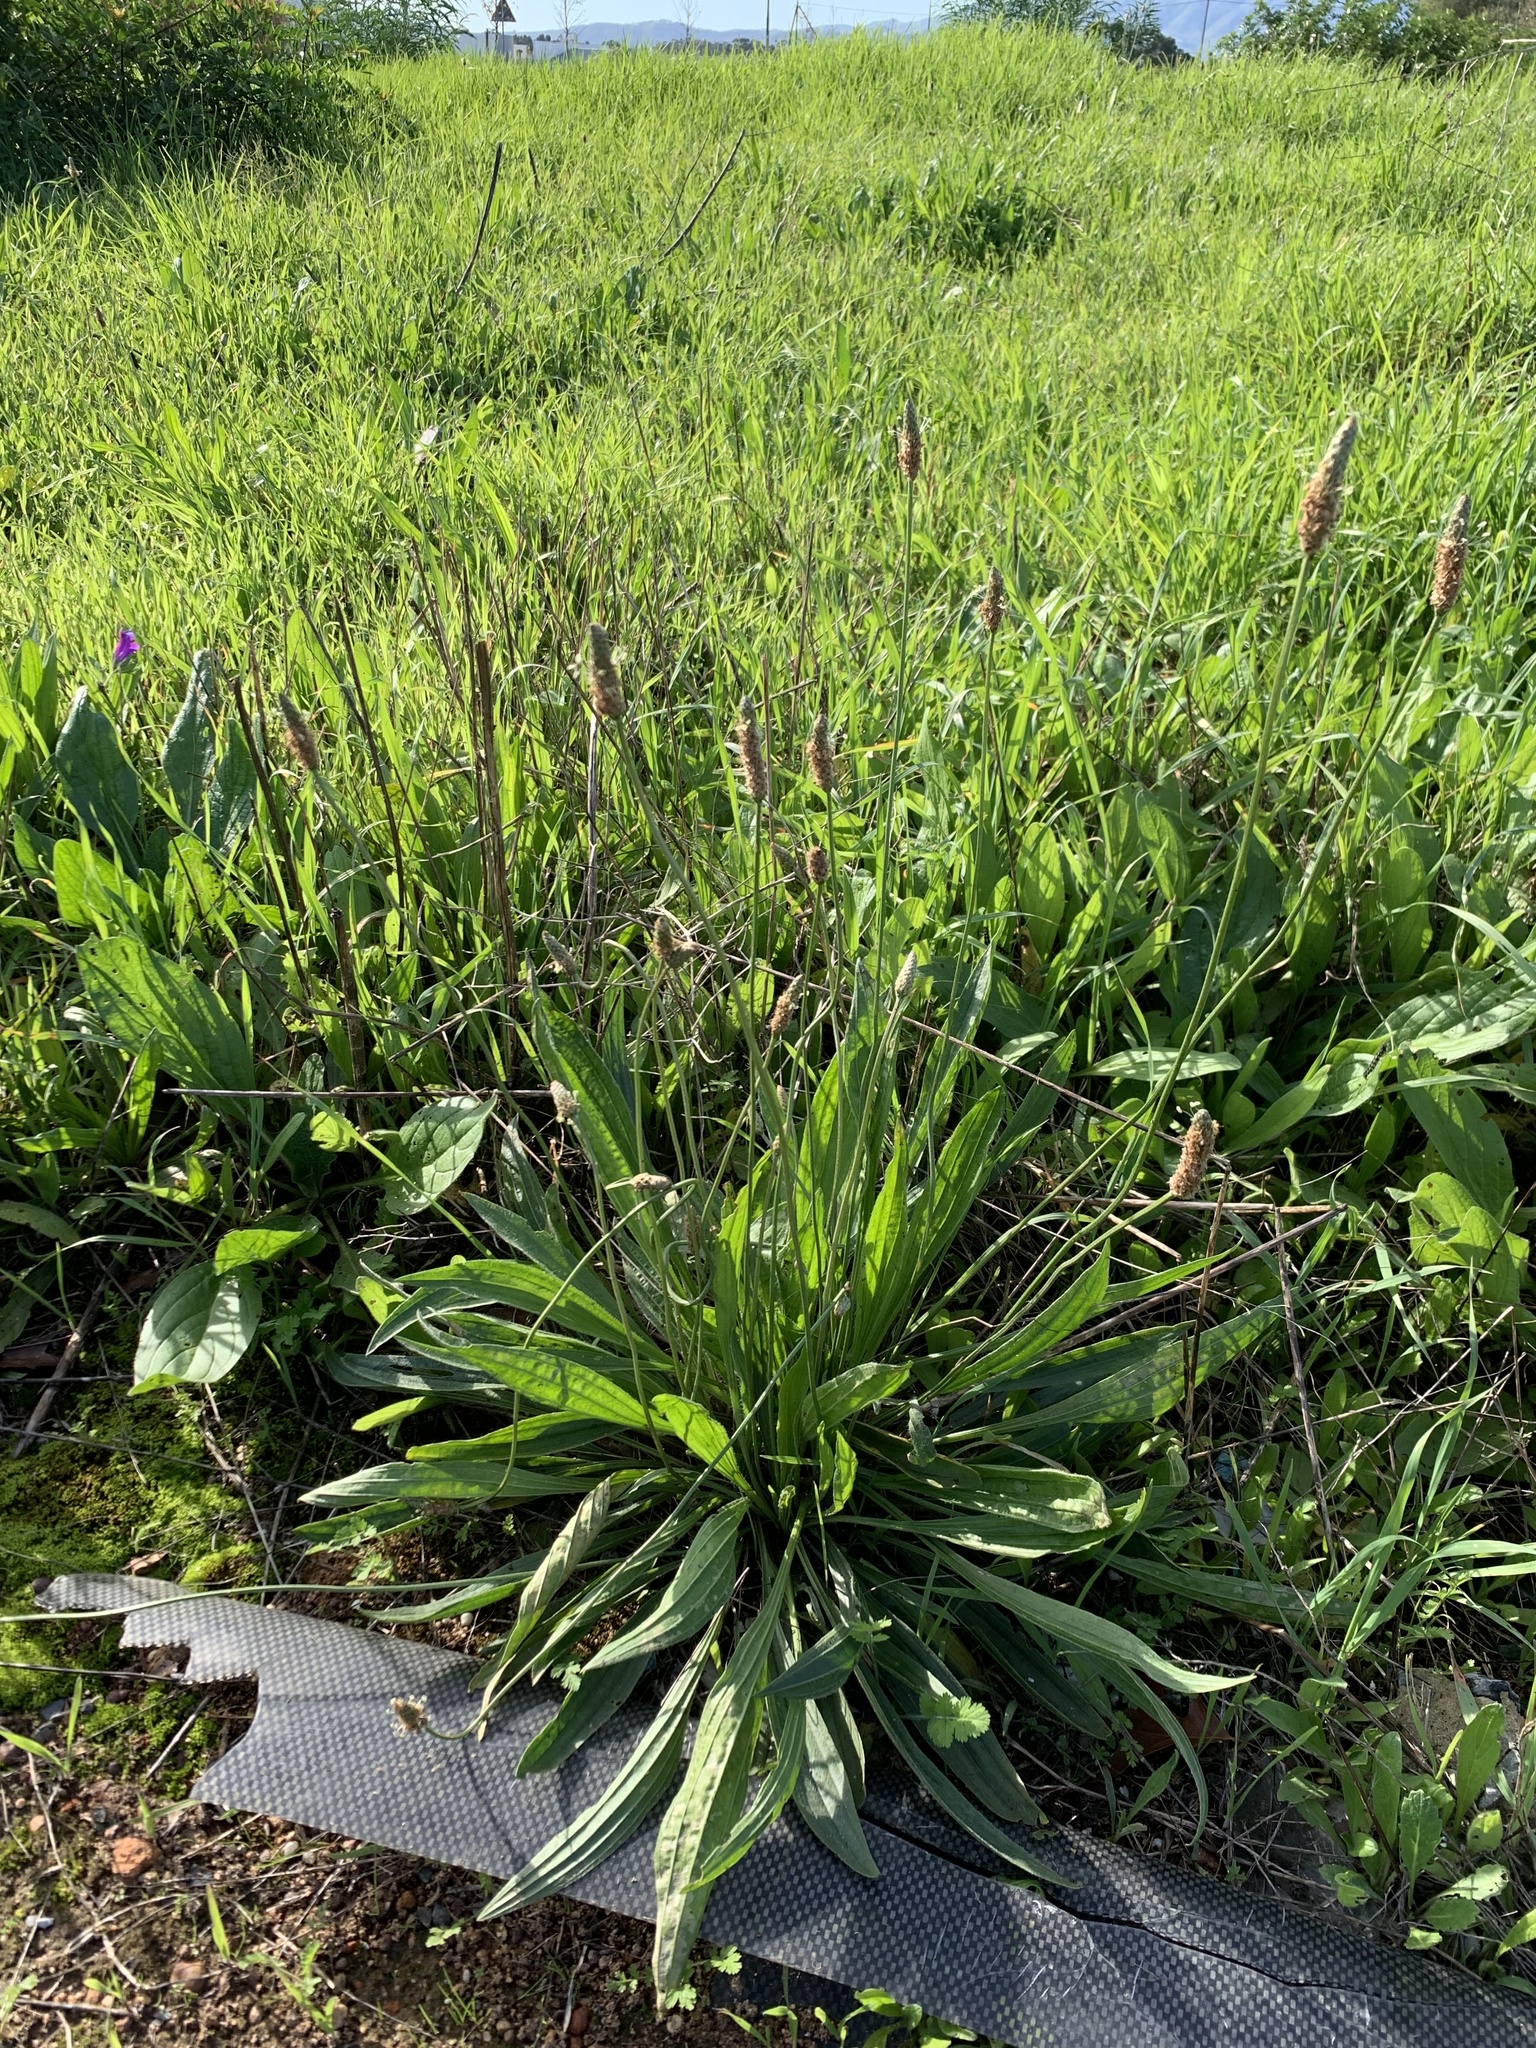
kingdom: Plantae
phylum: Tracheophyta
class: Magnoliopsida
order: Lamiales
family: Plantaginaceae
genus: Plantago
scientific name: Plantago lanceolata
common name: Ribwort plantain
